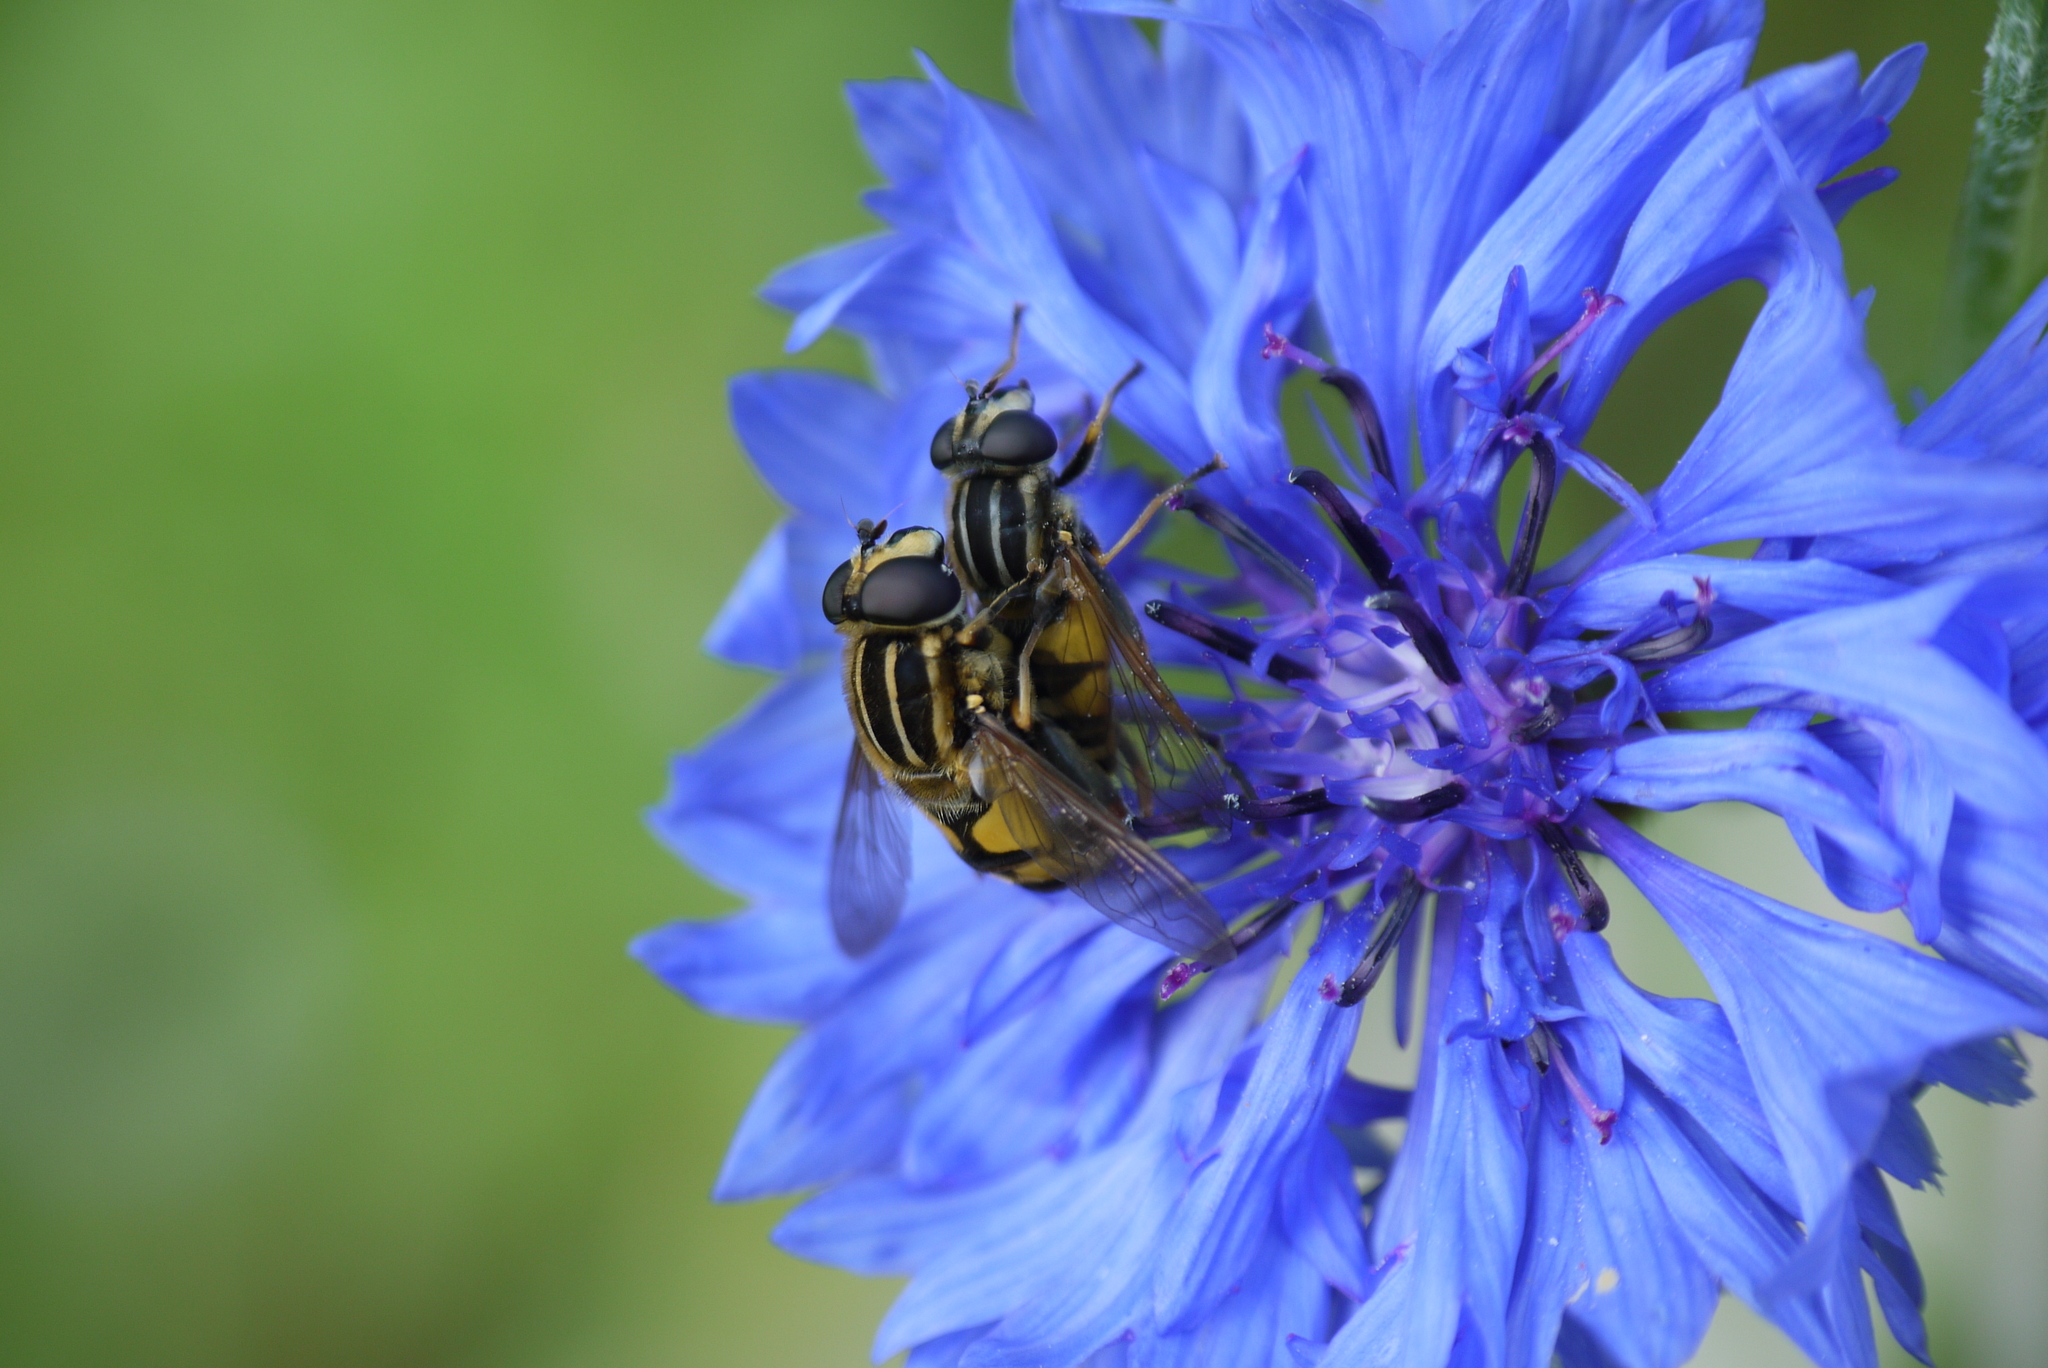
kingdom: Animalia
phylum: Arthropoda
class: Insecta
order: Diptera
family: Syrphidae
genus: Helophilus
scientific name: Helophilus pendulus
